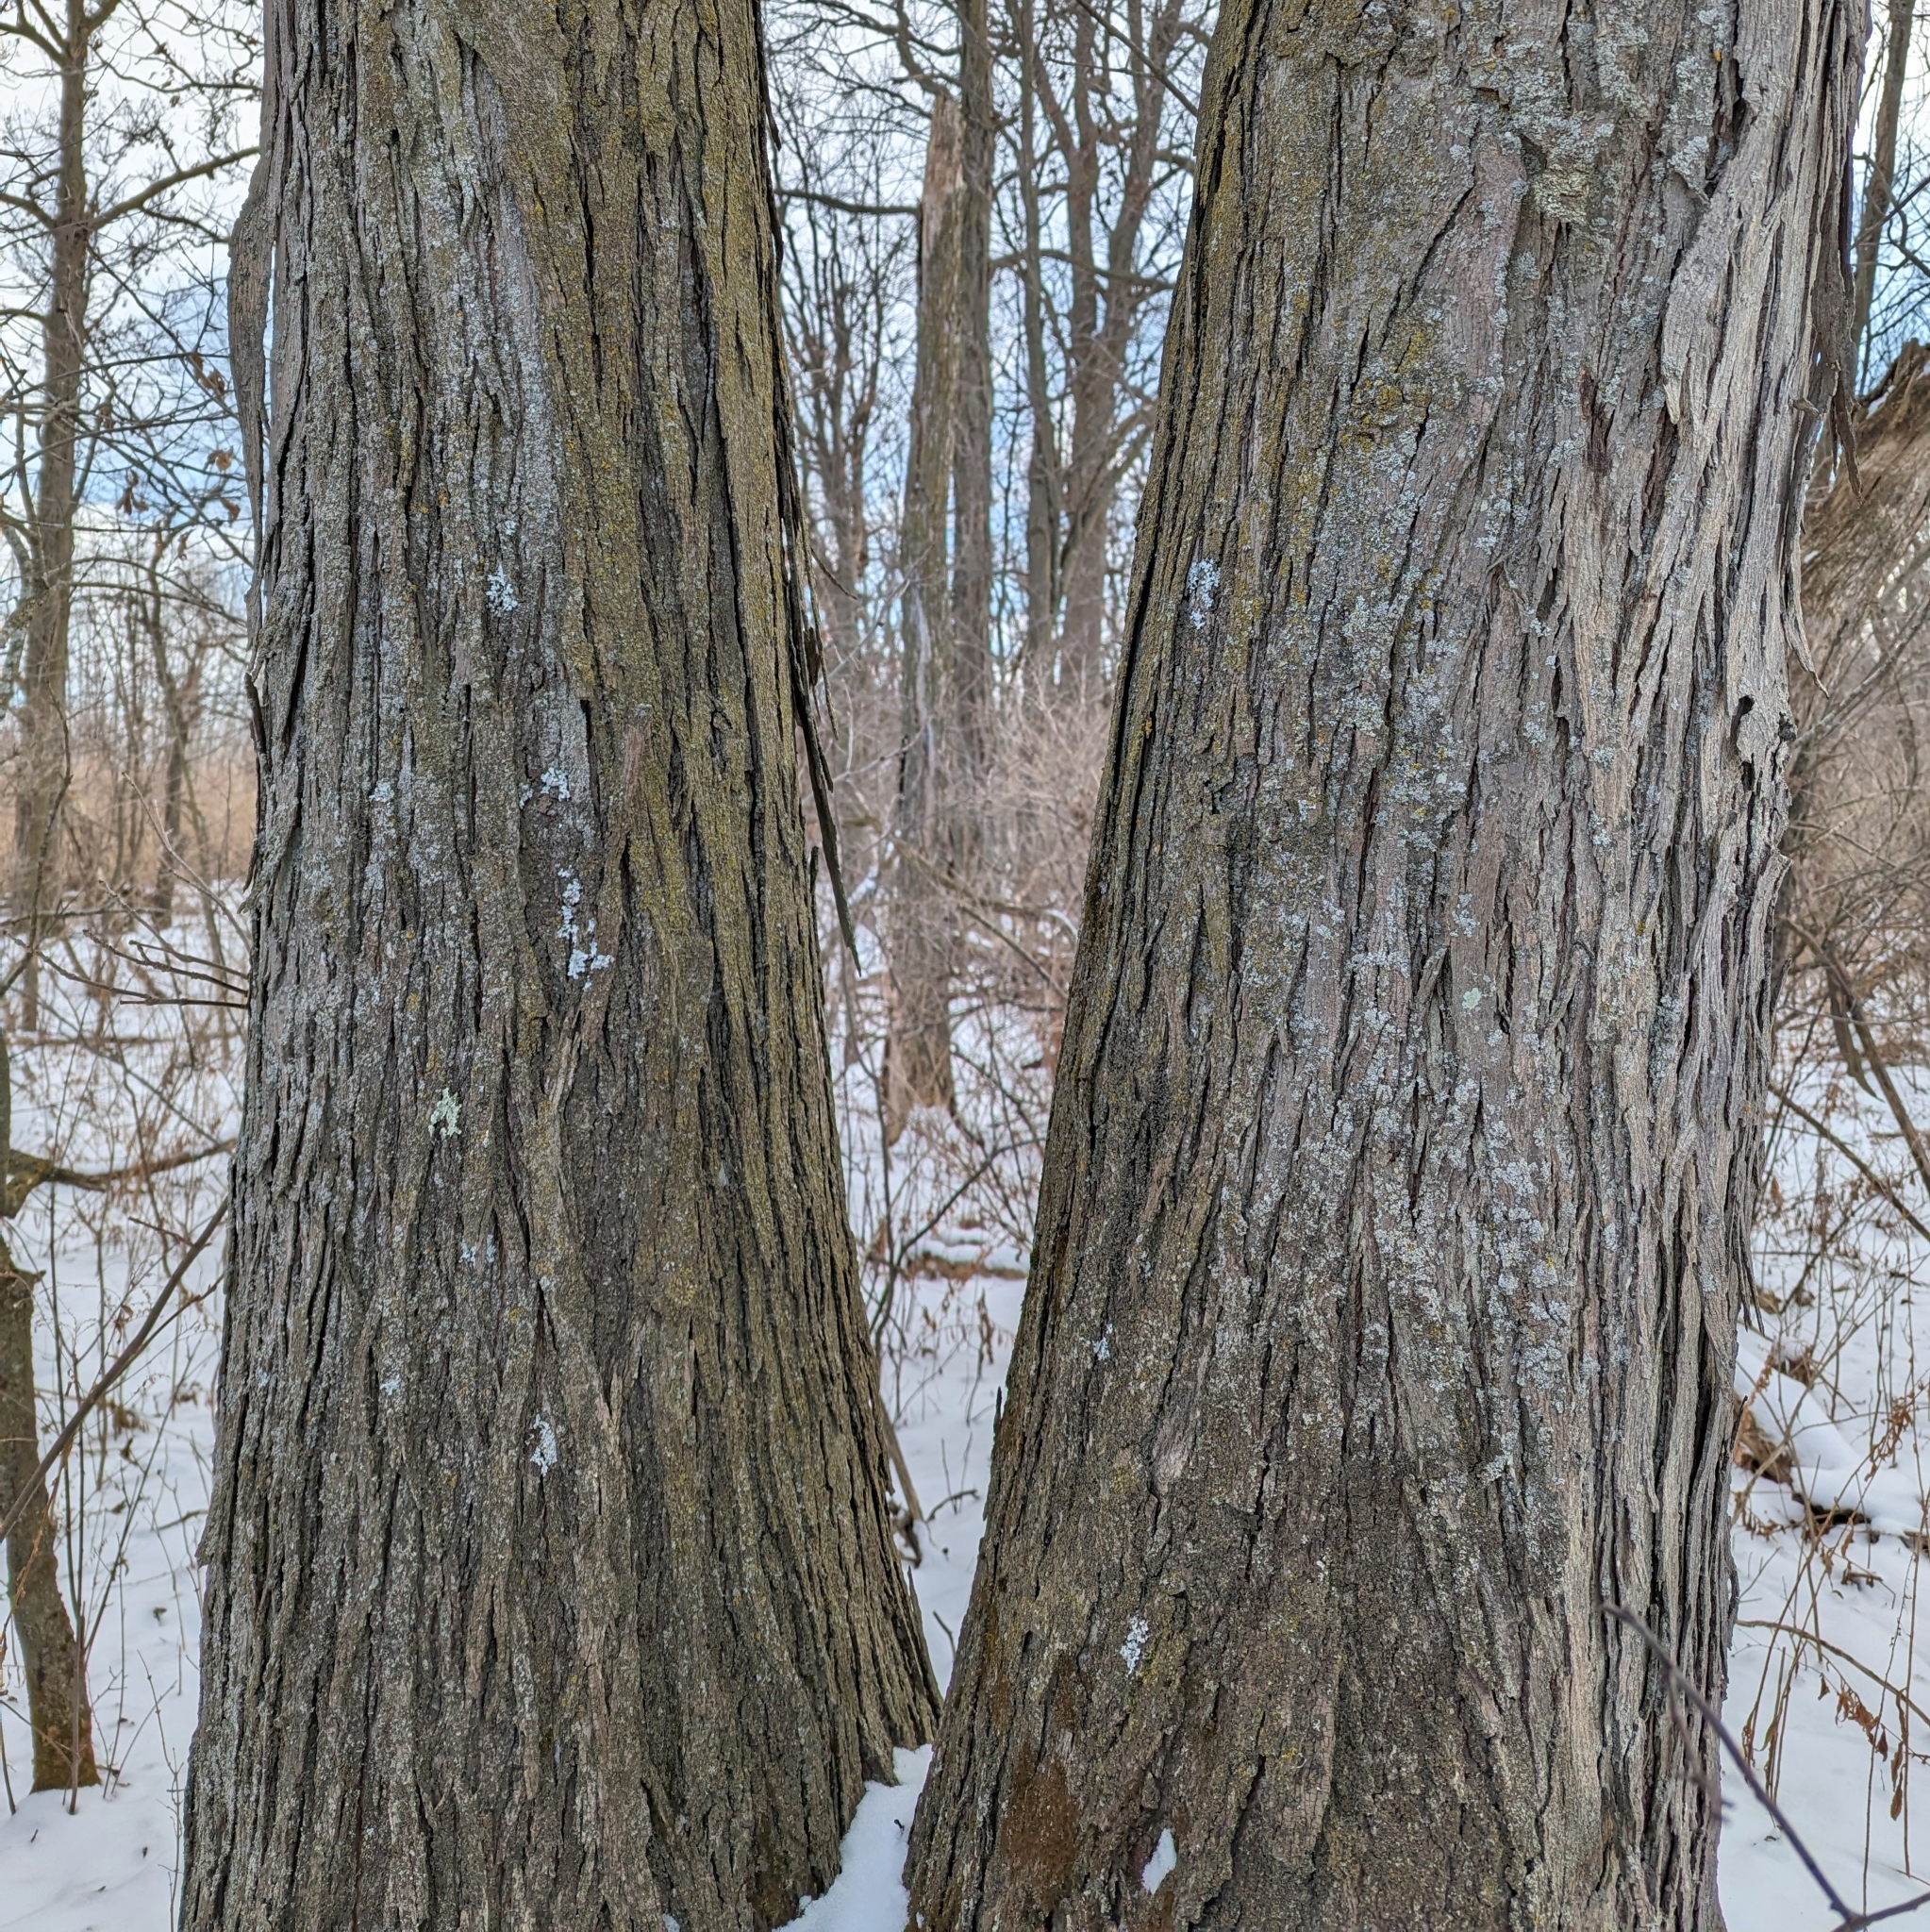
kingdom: Plantae
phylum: Tracheophyta
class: Magnoliopsida
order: Fagales
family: Juglandaceae
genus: Carya
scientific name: Carya ovata
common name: Shagbark hickory
